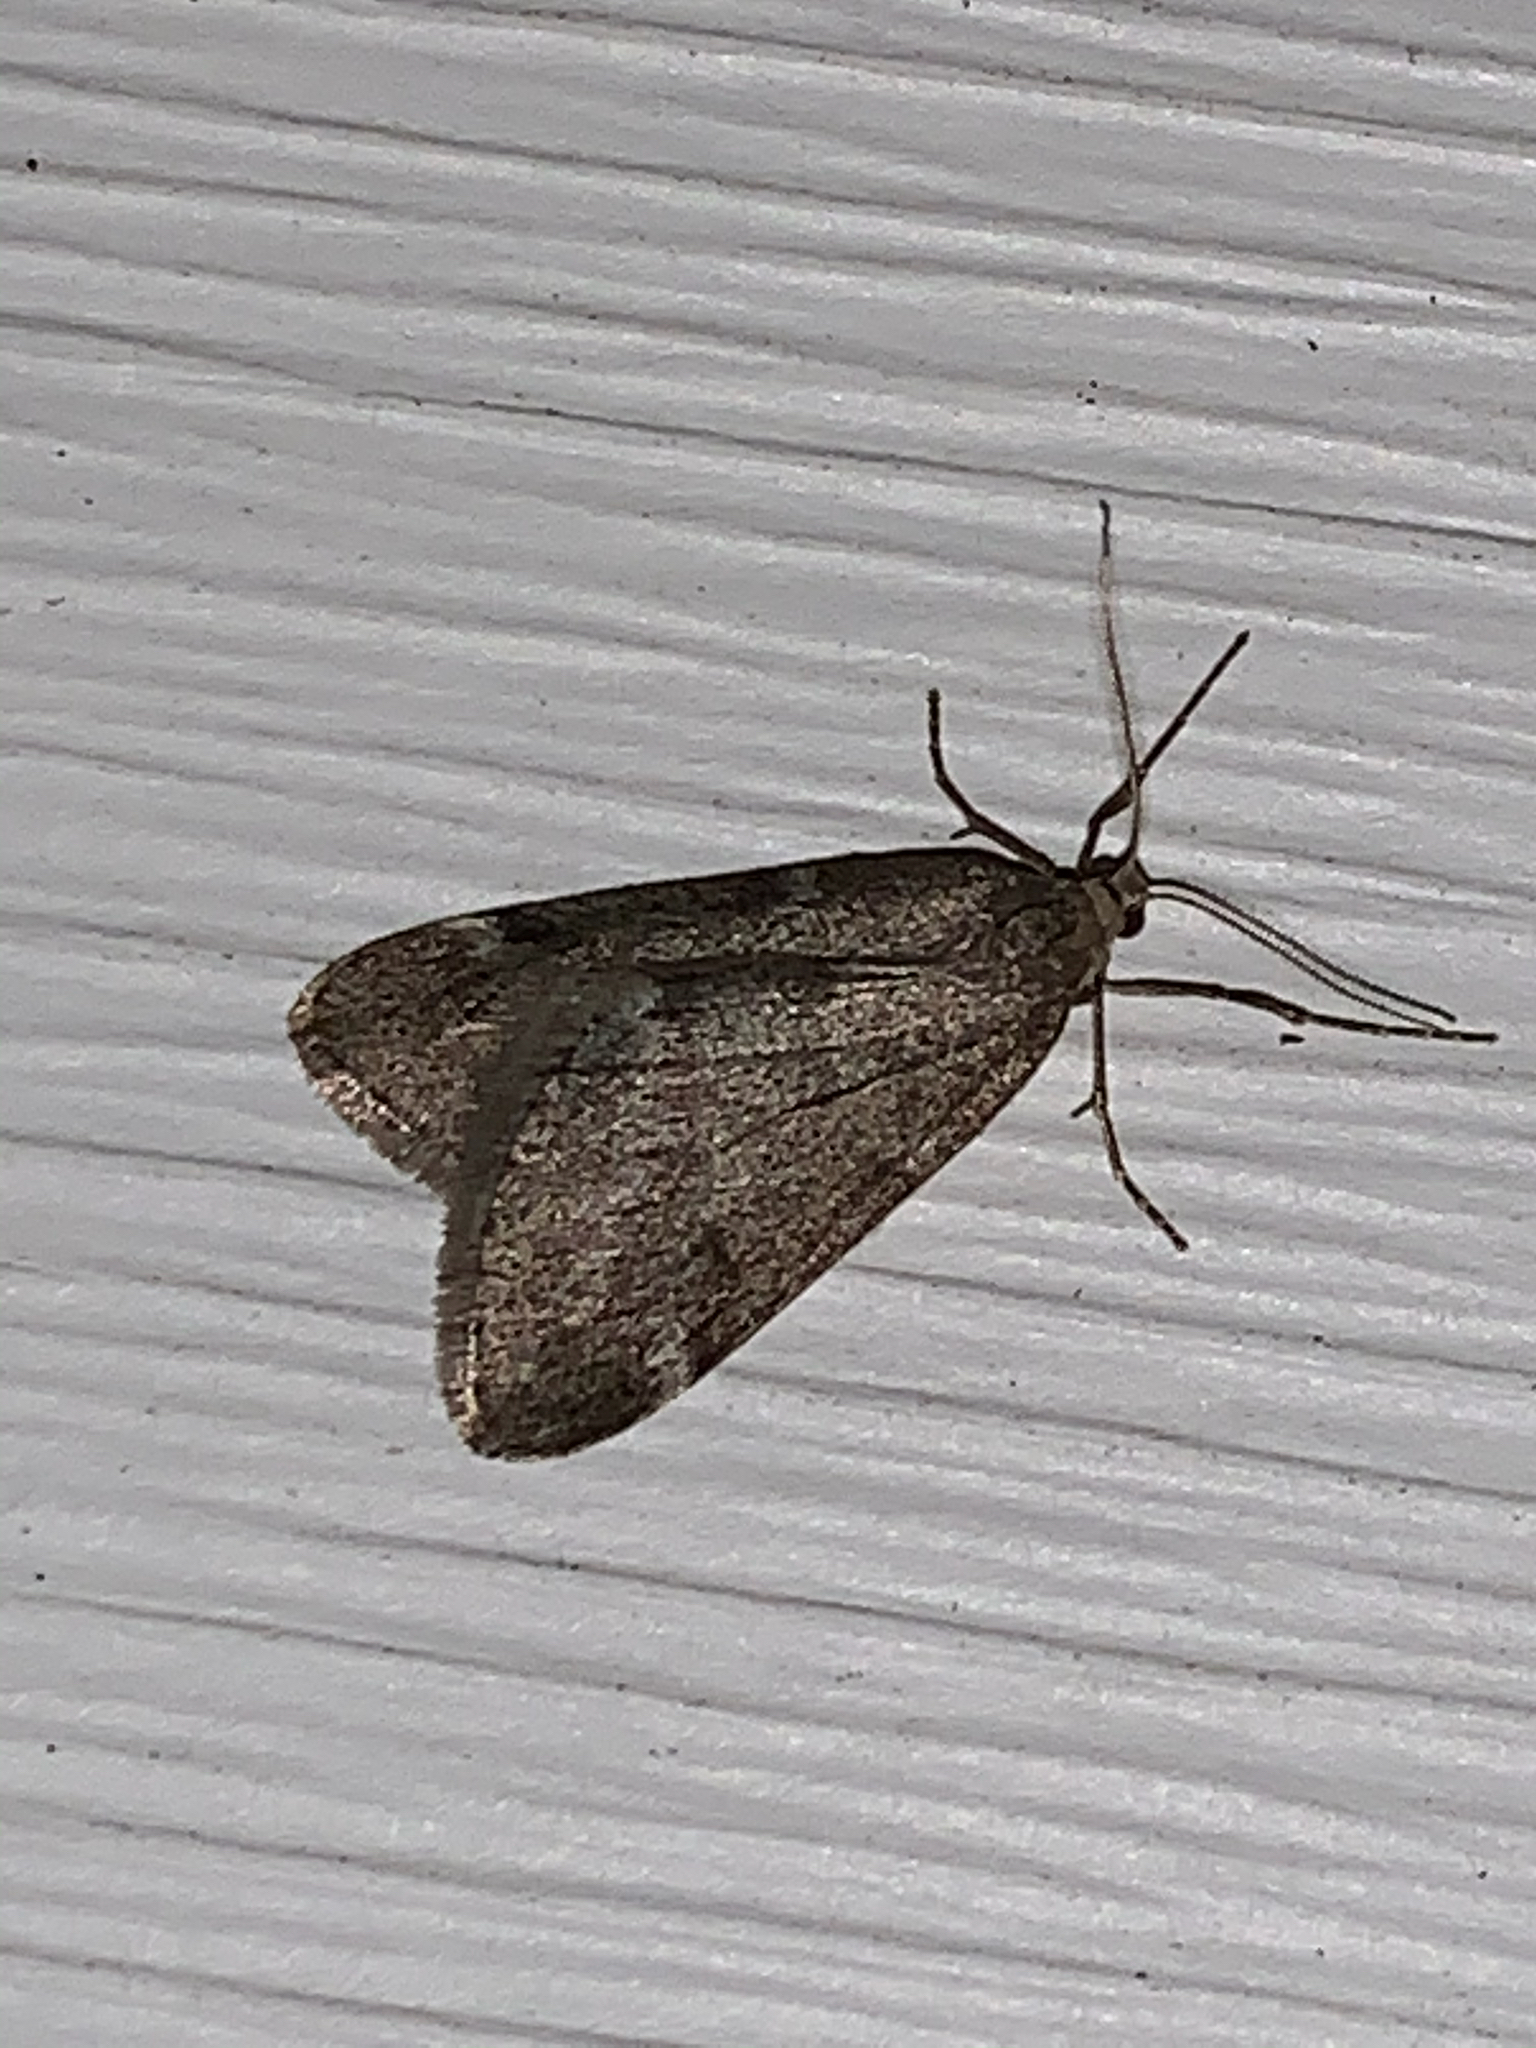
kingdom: Animalia
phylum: Arthropoda
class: Insecta
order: Lepidoptera
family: Geometridae
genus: Alsophila
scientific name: Alsophila pometaria
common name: Fall cankerworm
